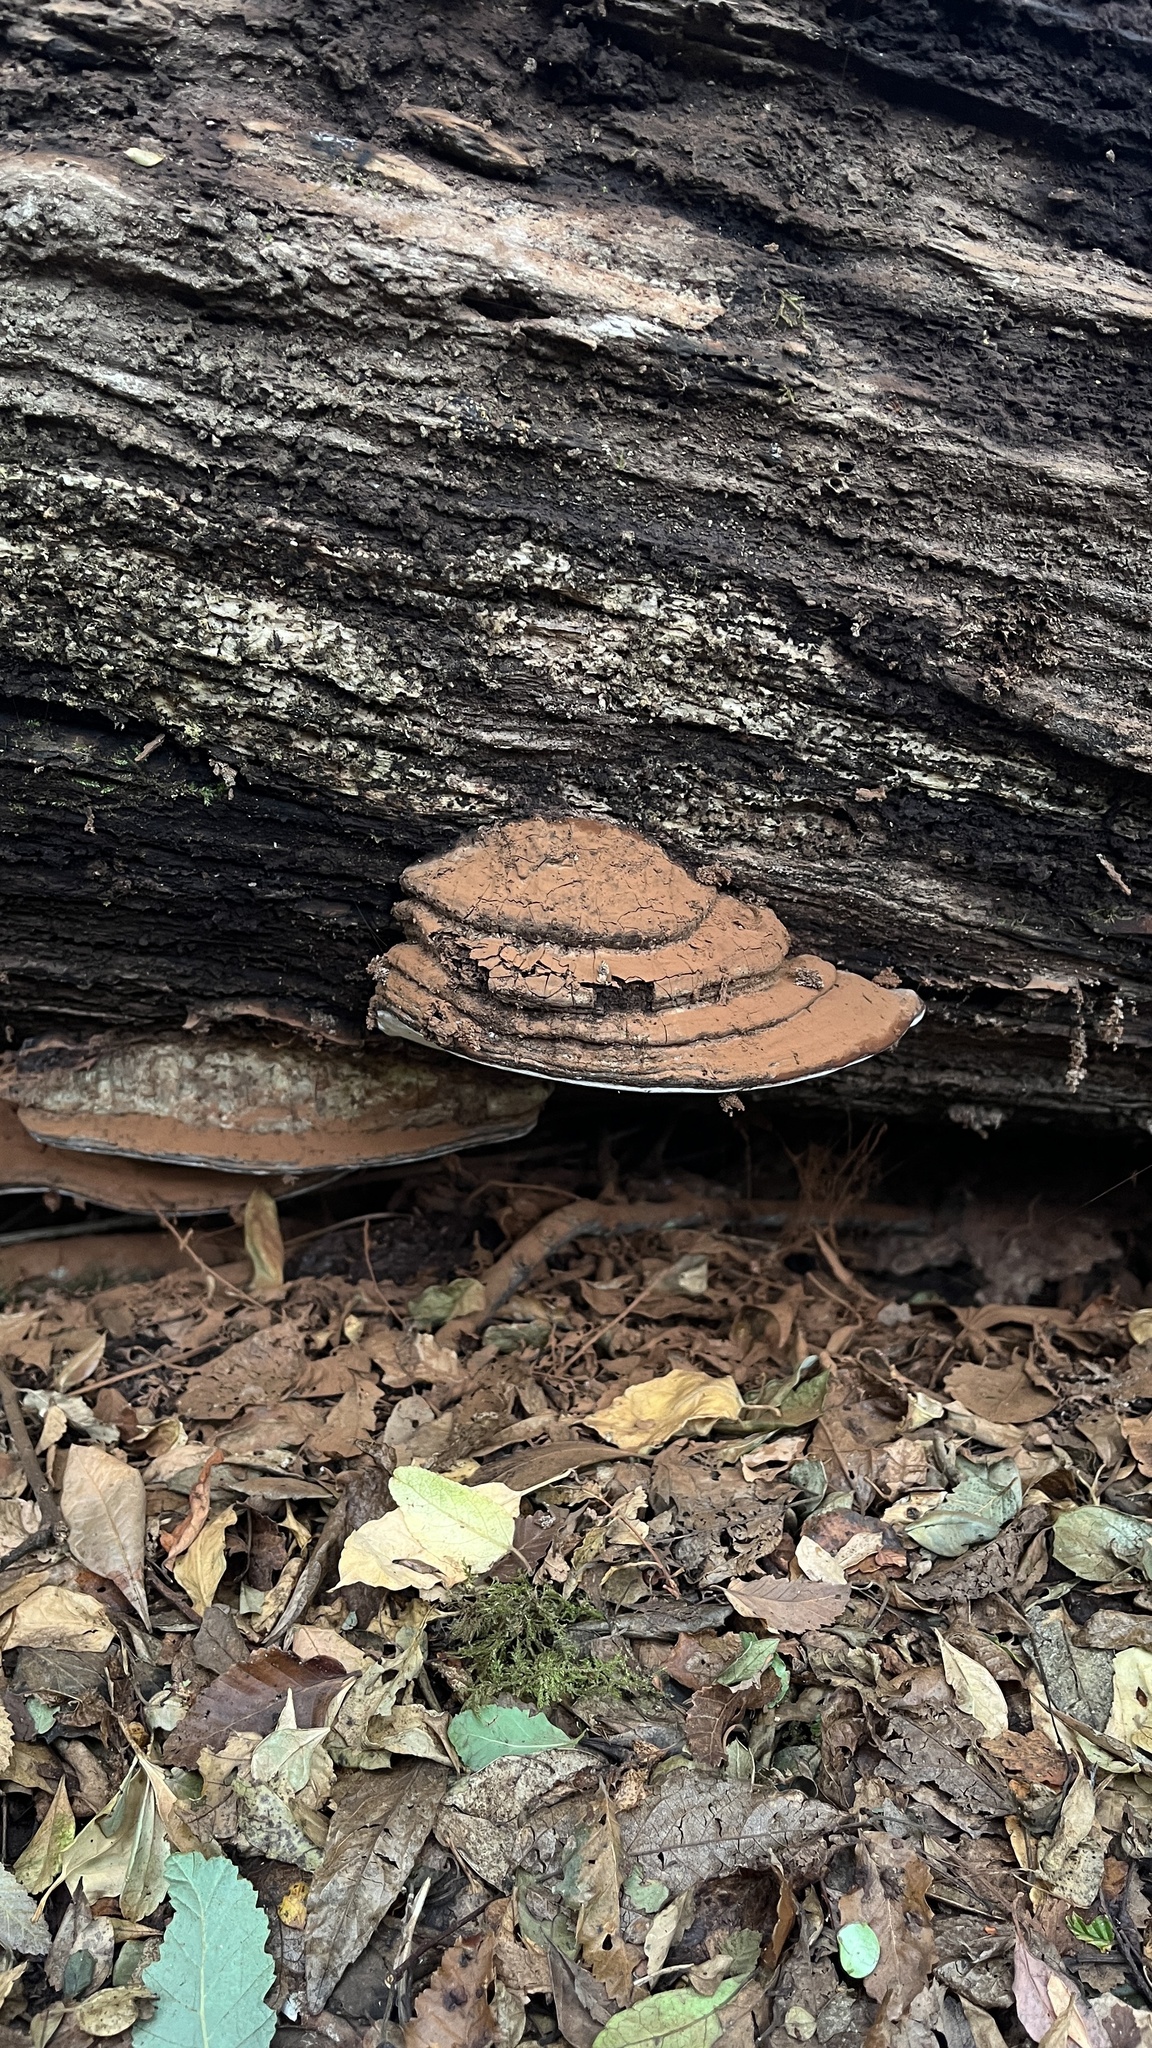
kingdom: Fungi
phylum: Basidiomycota
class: Agaricomycetes
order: Polyporales
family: Polyporaceae
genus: Ganoderma
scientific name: Ganoderma australe
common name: Southern bracket
